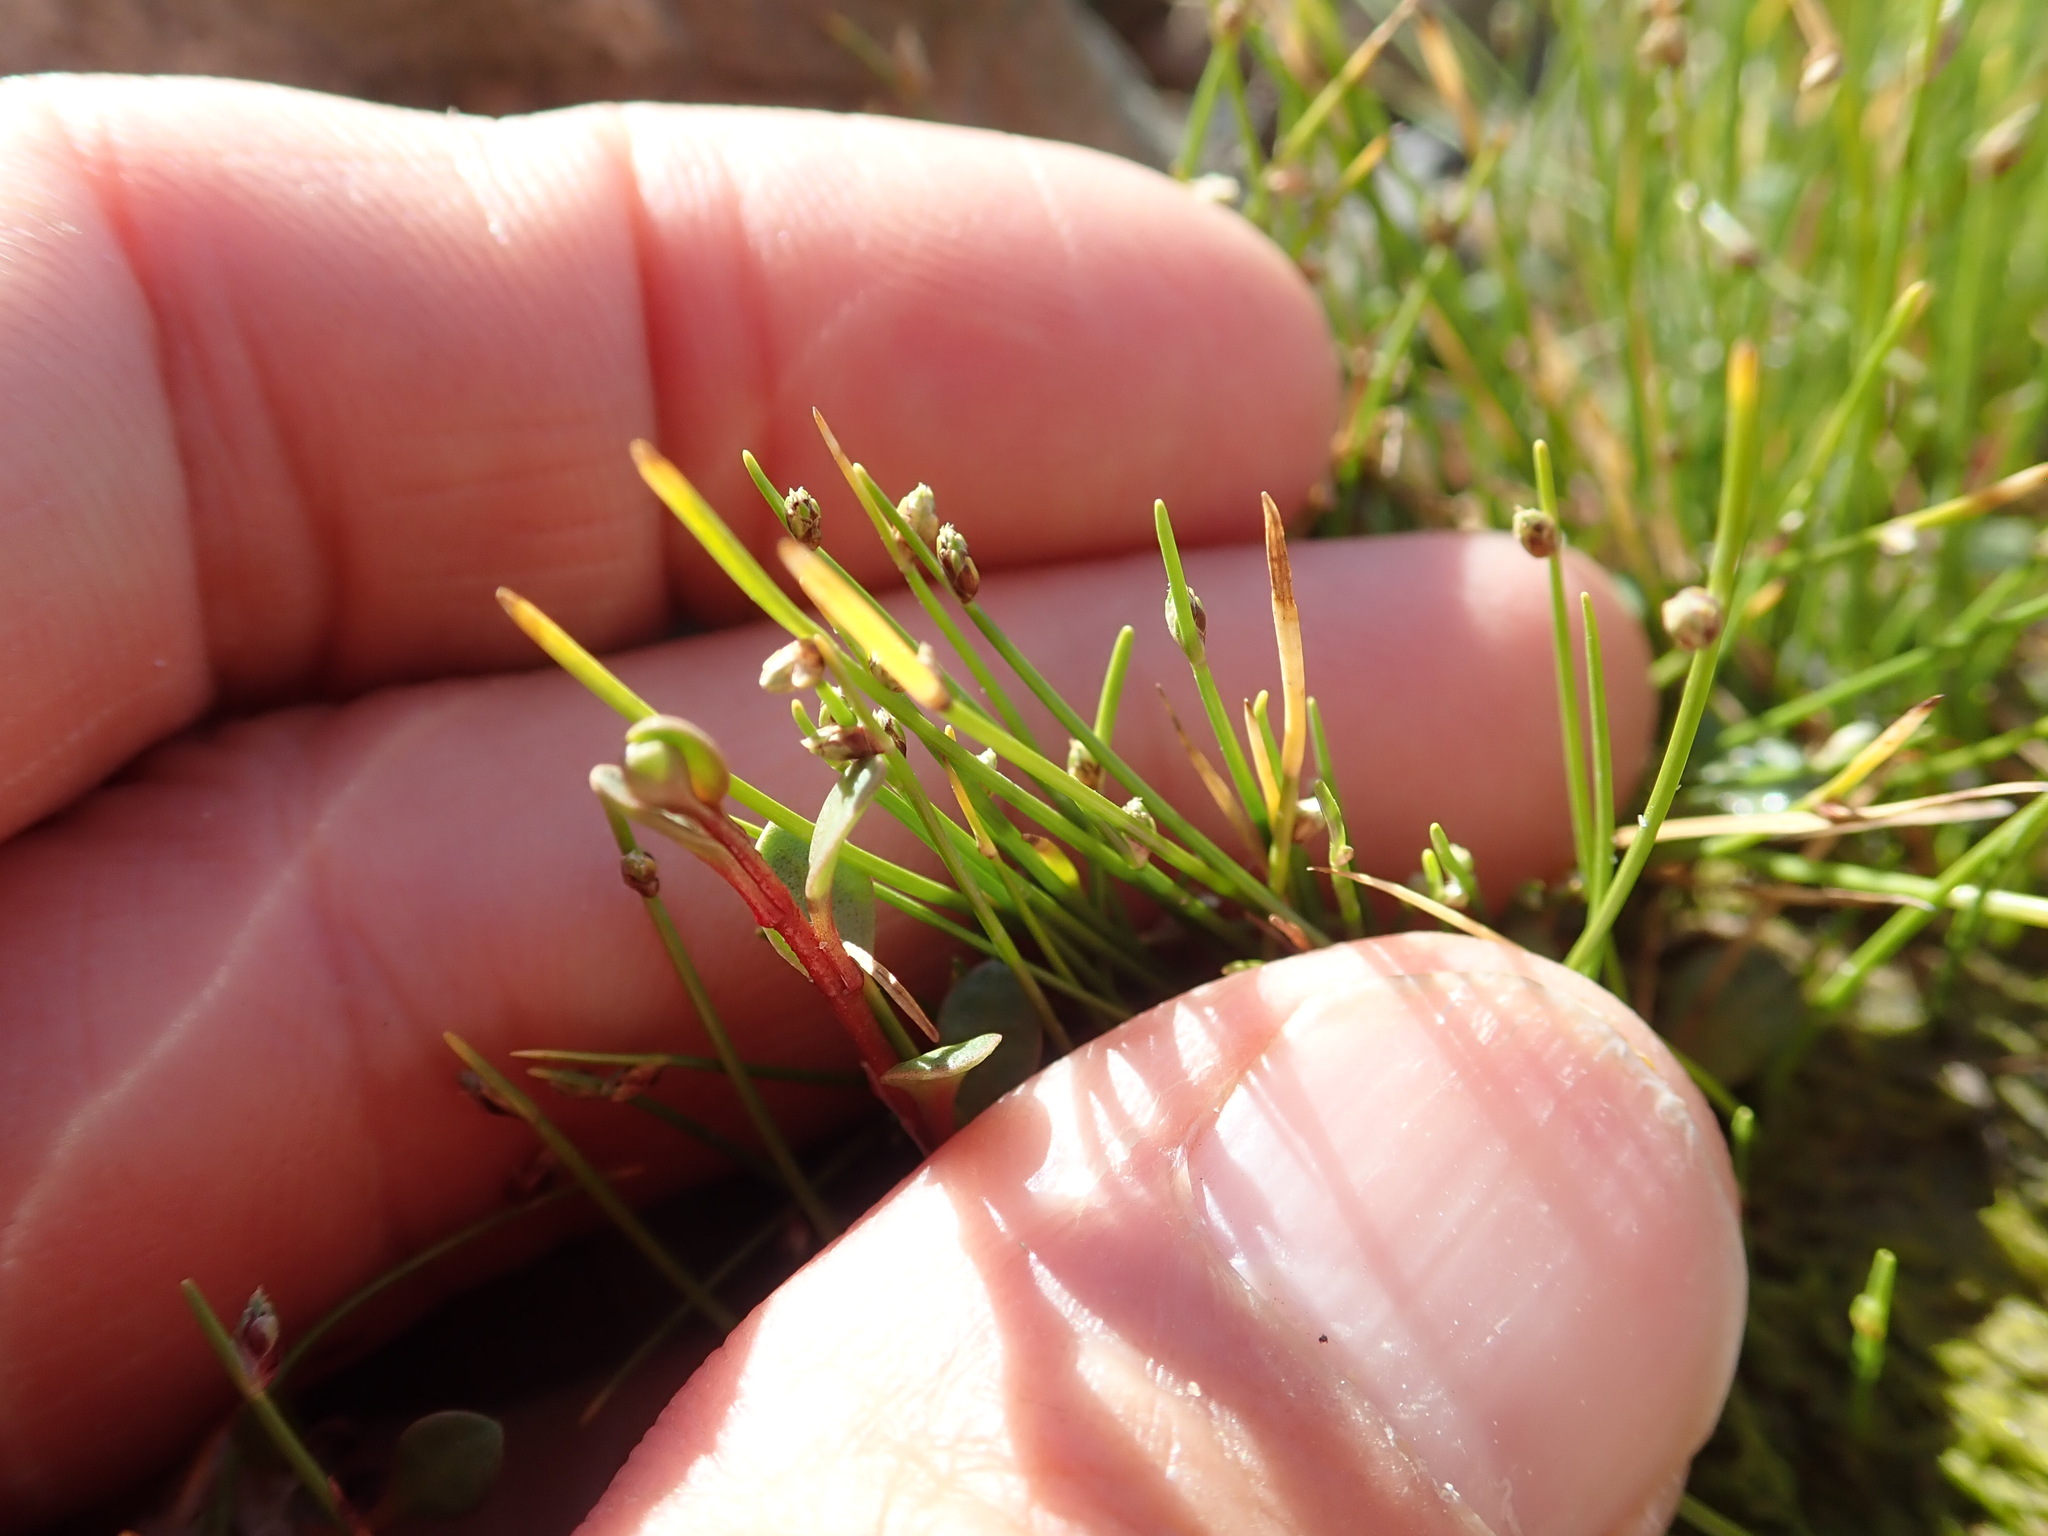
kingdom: Plantae
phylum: Tracheophyta
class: Liliopsida
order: Poales
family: Cyperaceae
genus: Isolepis
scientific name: Isolepis cernua
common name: Slender club-rush
